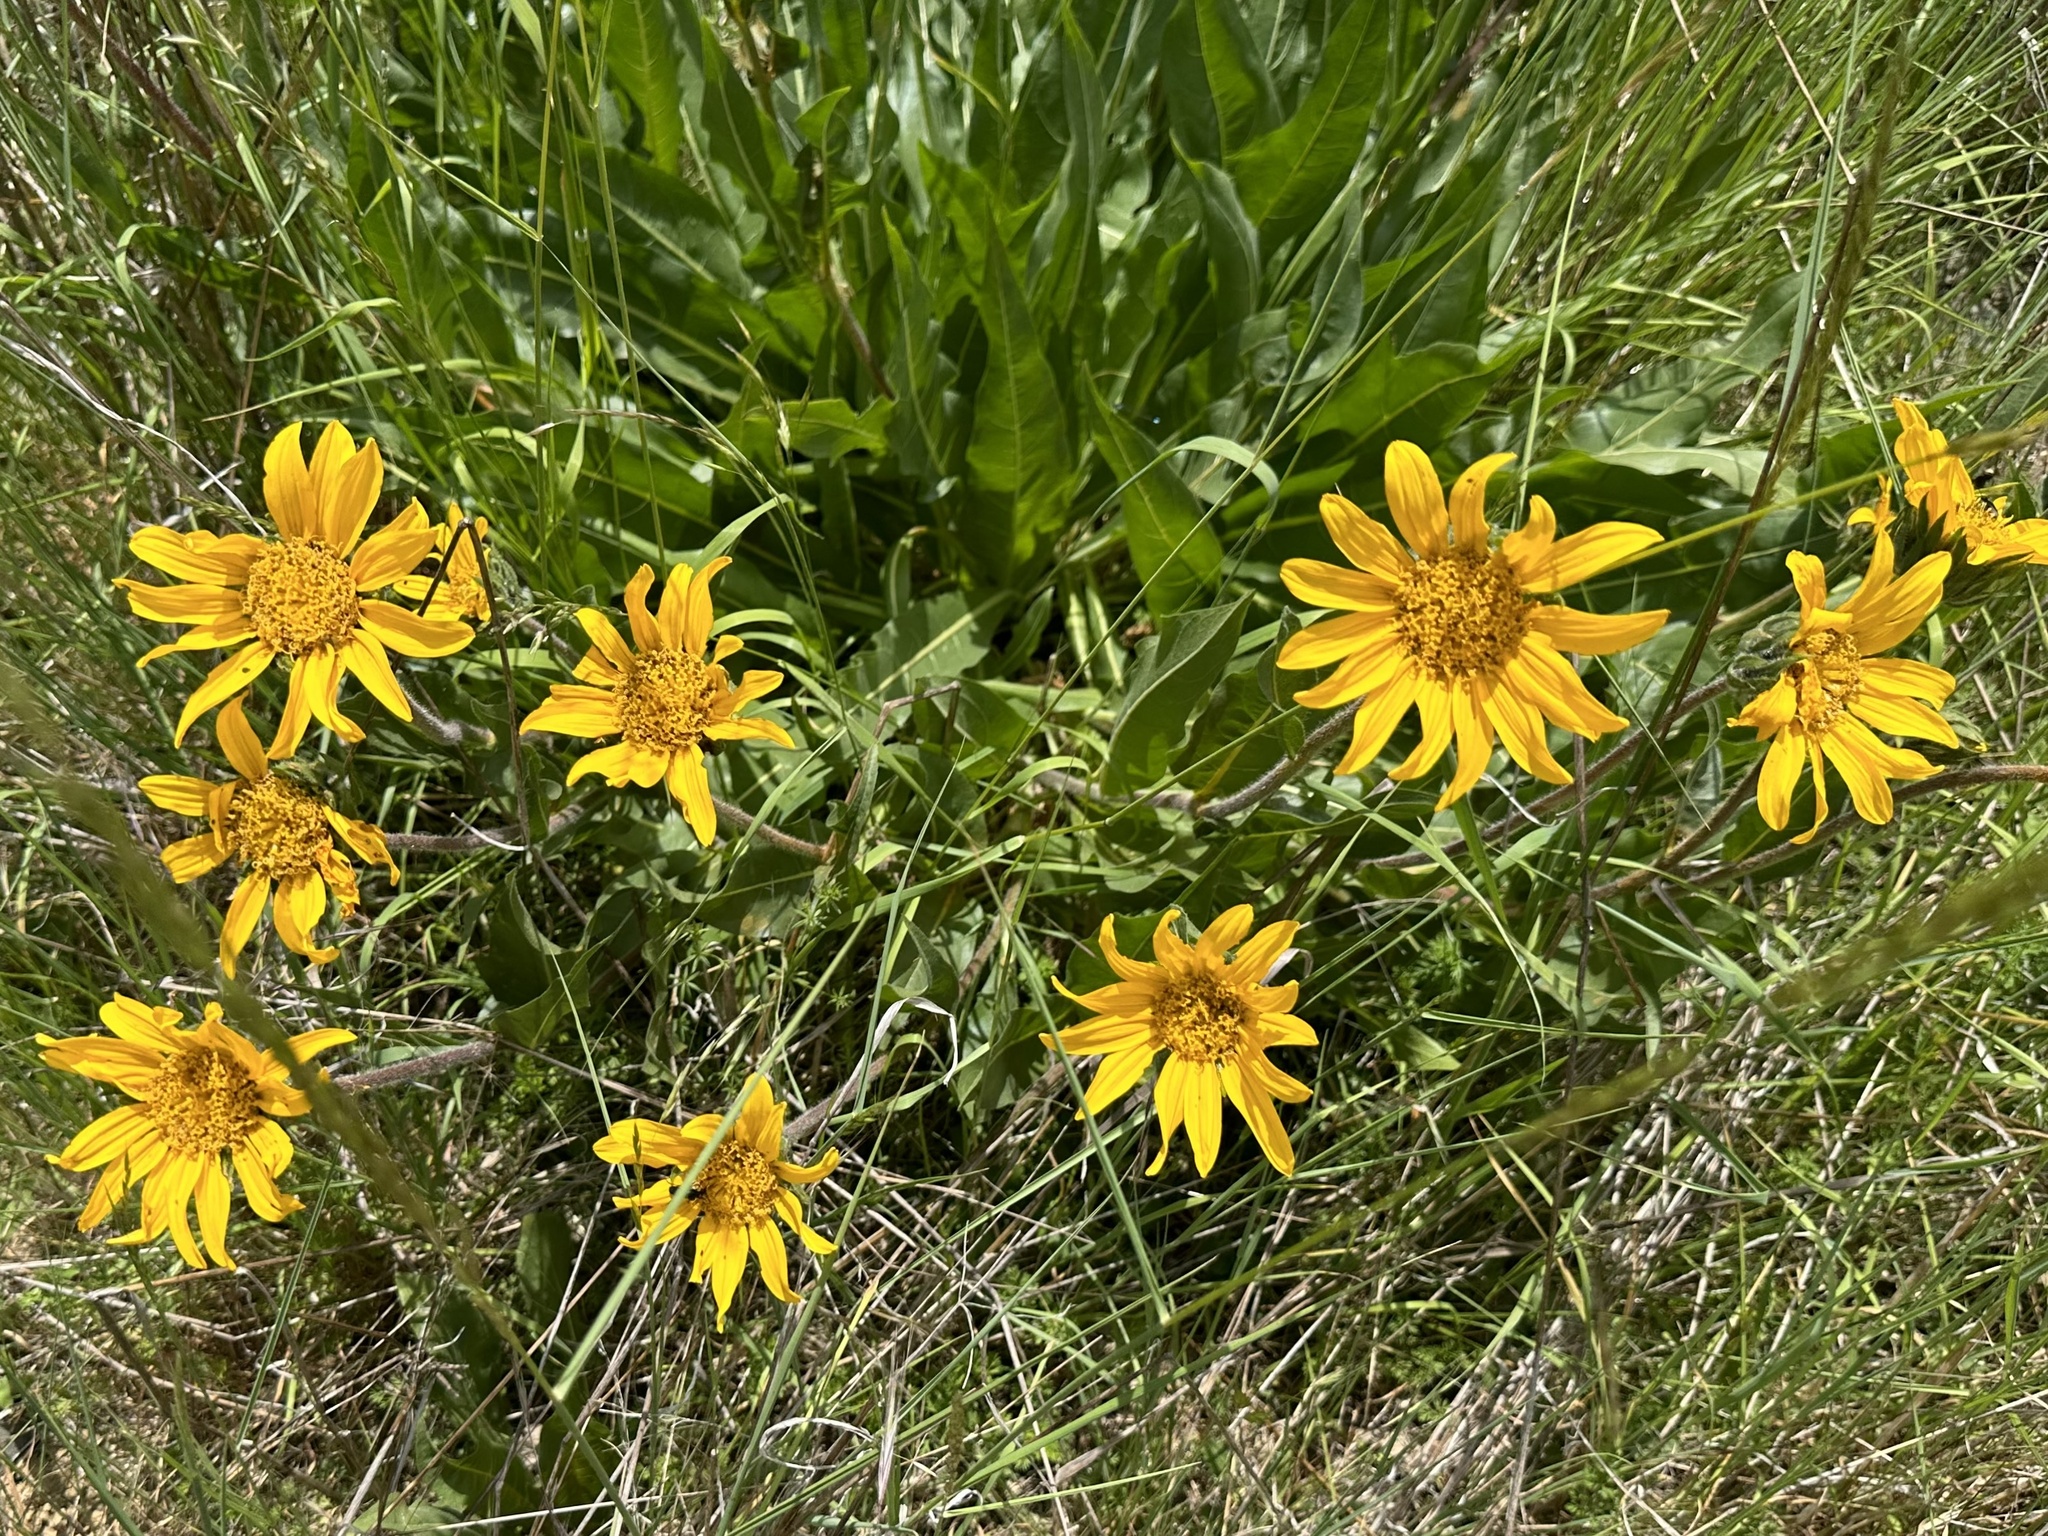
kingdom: Plantae
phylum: Tracheophyta
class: Magnoliopsida
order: Asterales
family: Asteraceae
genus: Wyethia
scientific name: Wyethia angustifolia
